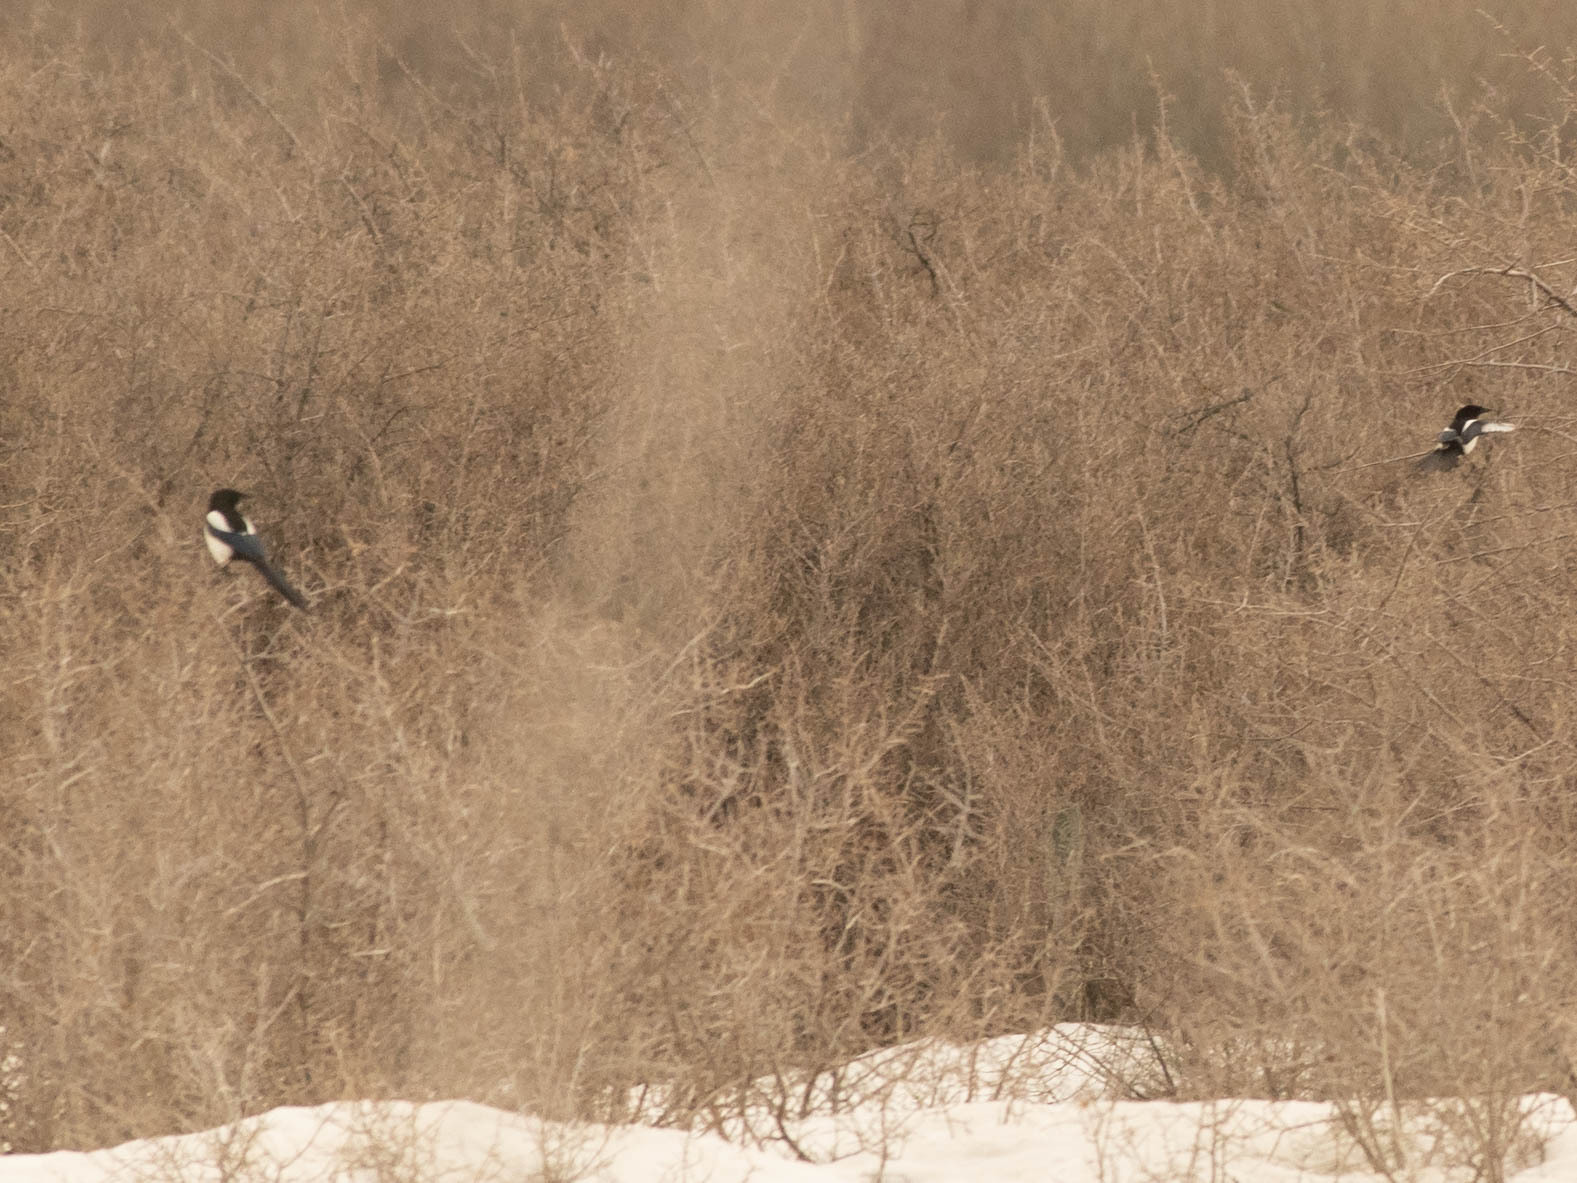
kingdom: Animalia
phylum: Chordata
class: Aves
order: Passeriformes
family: Corvidae
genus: Pica
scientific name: Pica hudsonia
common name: Black-billed magpie
